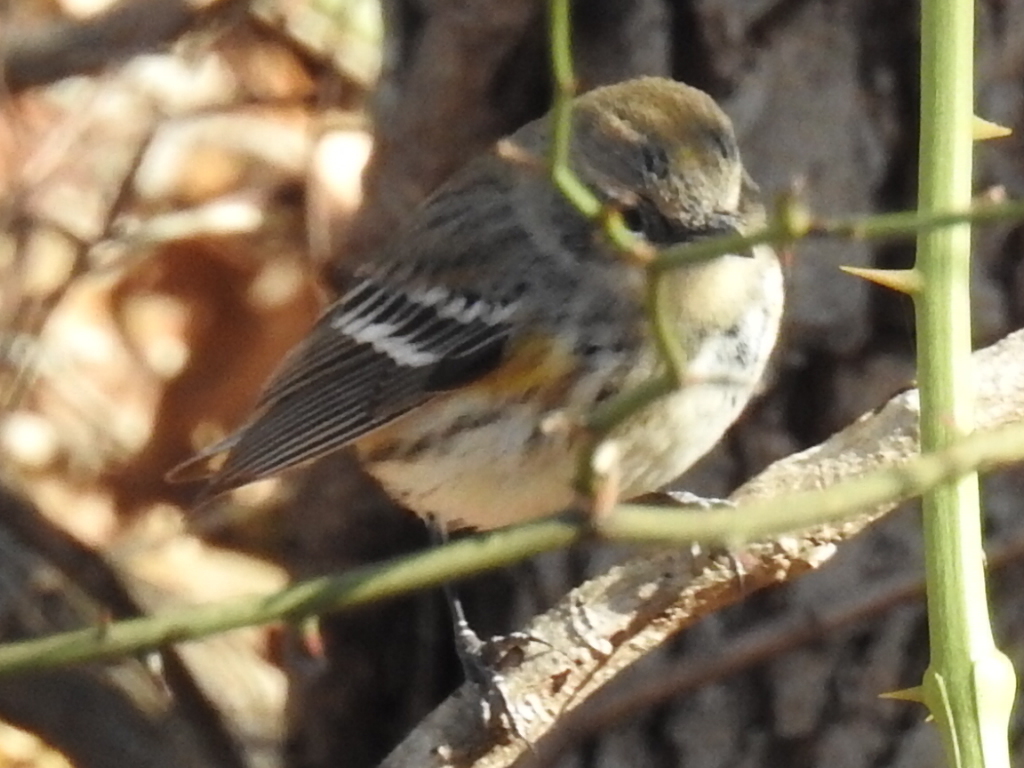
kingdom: Animalia
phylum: Chordata
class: Aves
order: Passeriformes
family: Parulidae
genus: Setophaga
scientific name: Setophaga coronata
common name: Myrtle warbler
